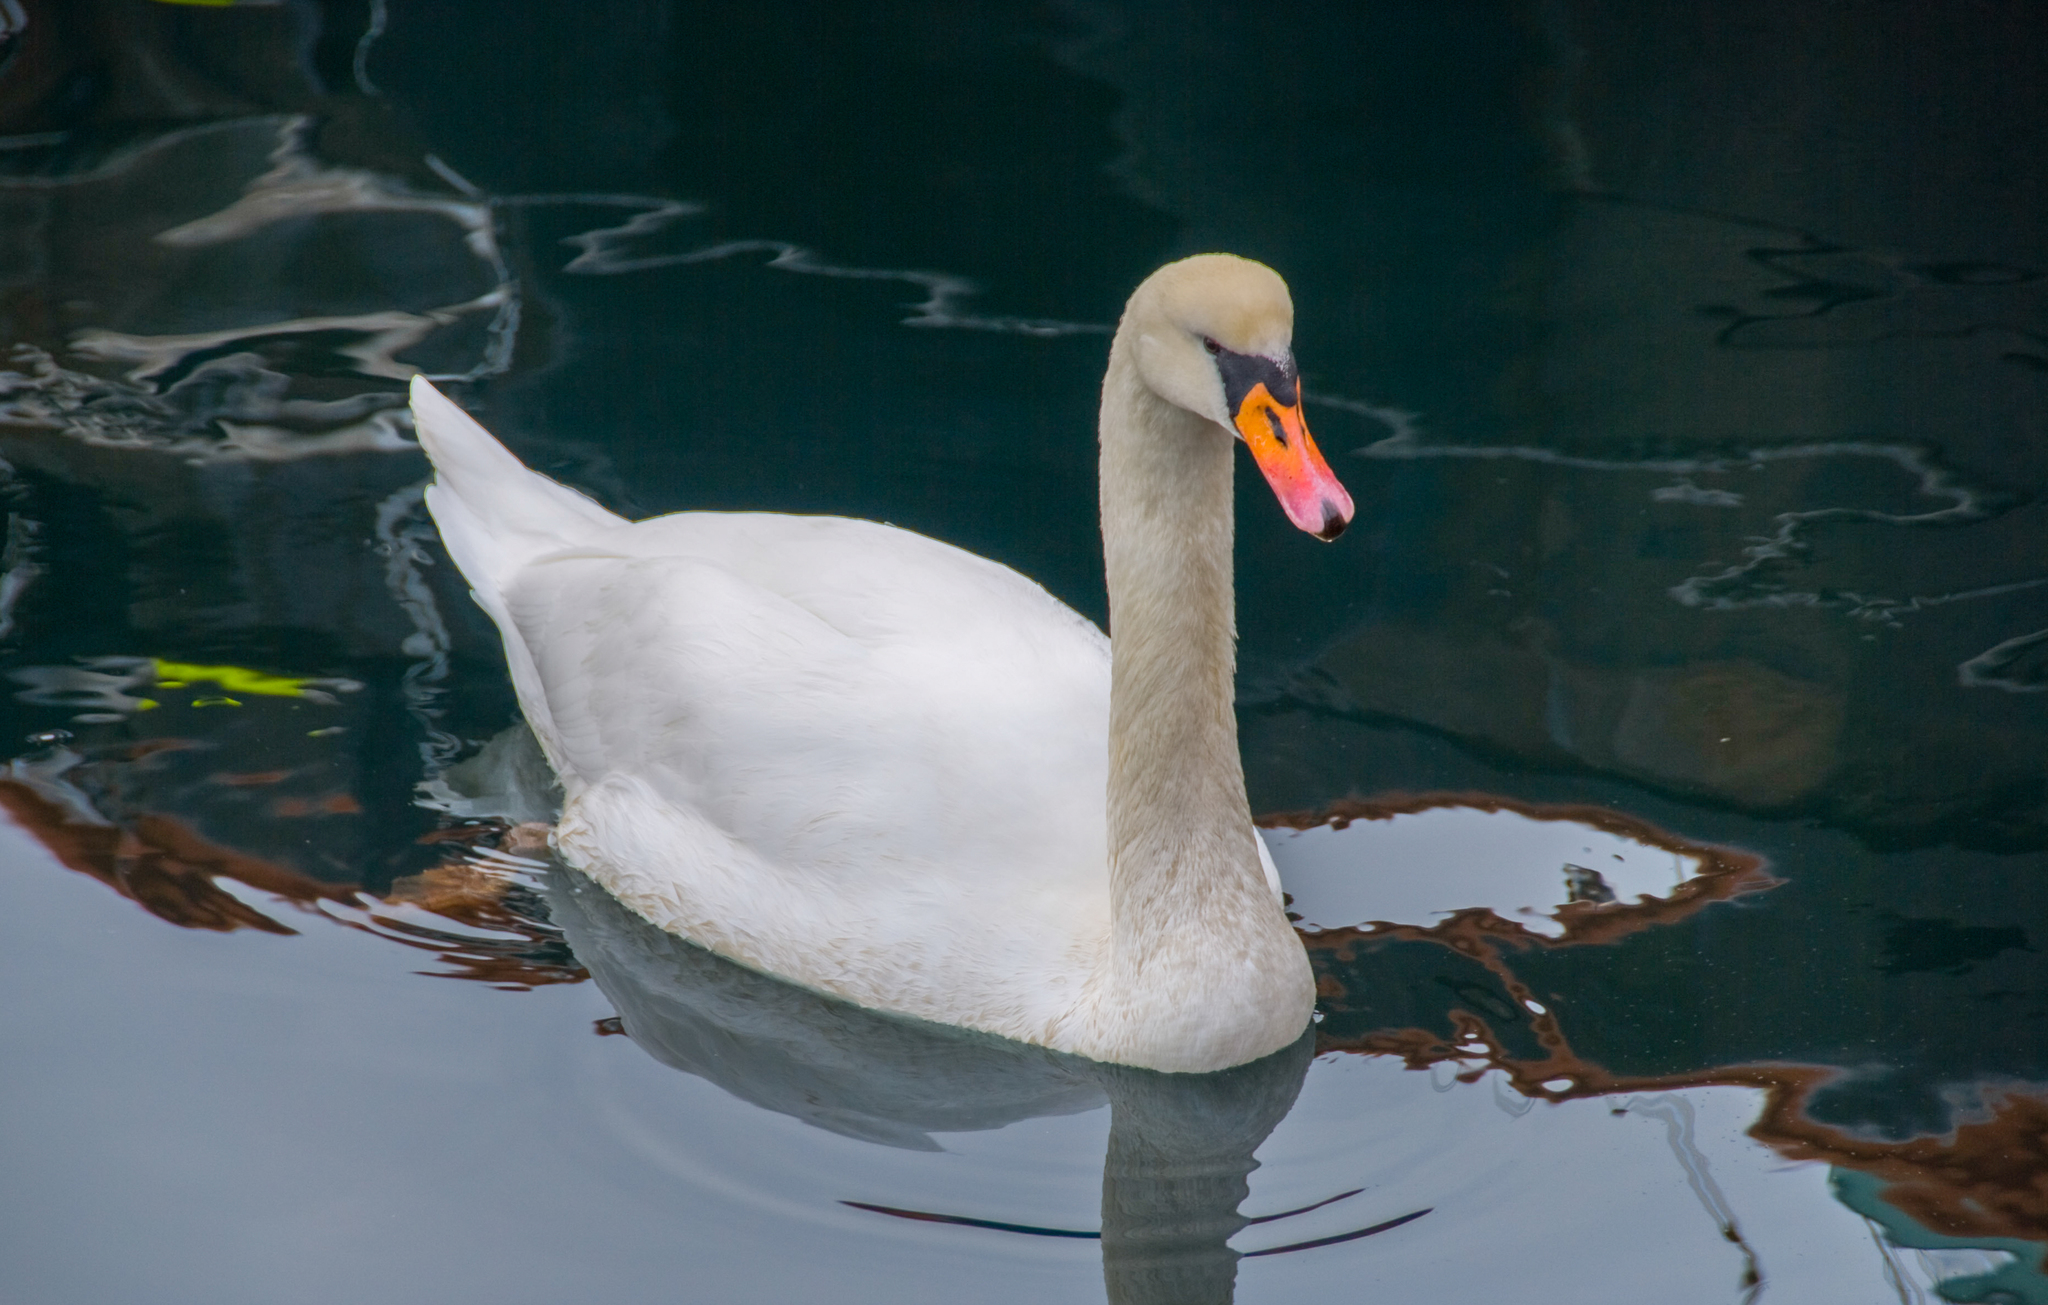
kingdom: Animalia
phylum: Chordata
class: Aves
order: Anseriformes
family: Anatidae
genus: Cygnus
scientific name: Cygnus olor
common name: Mute swan
